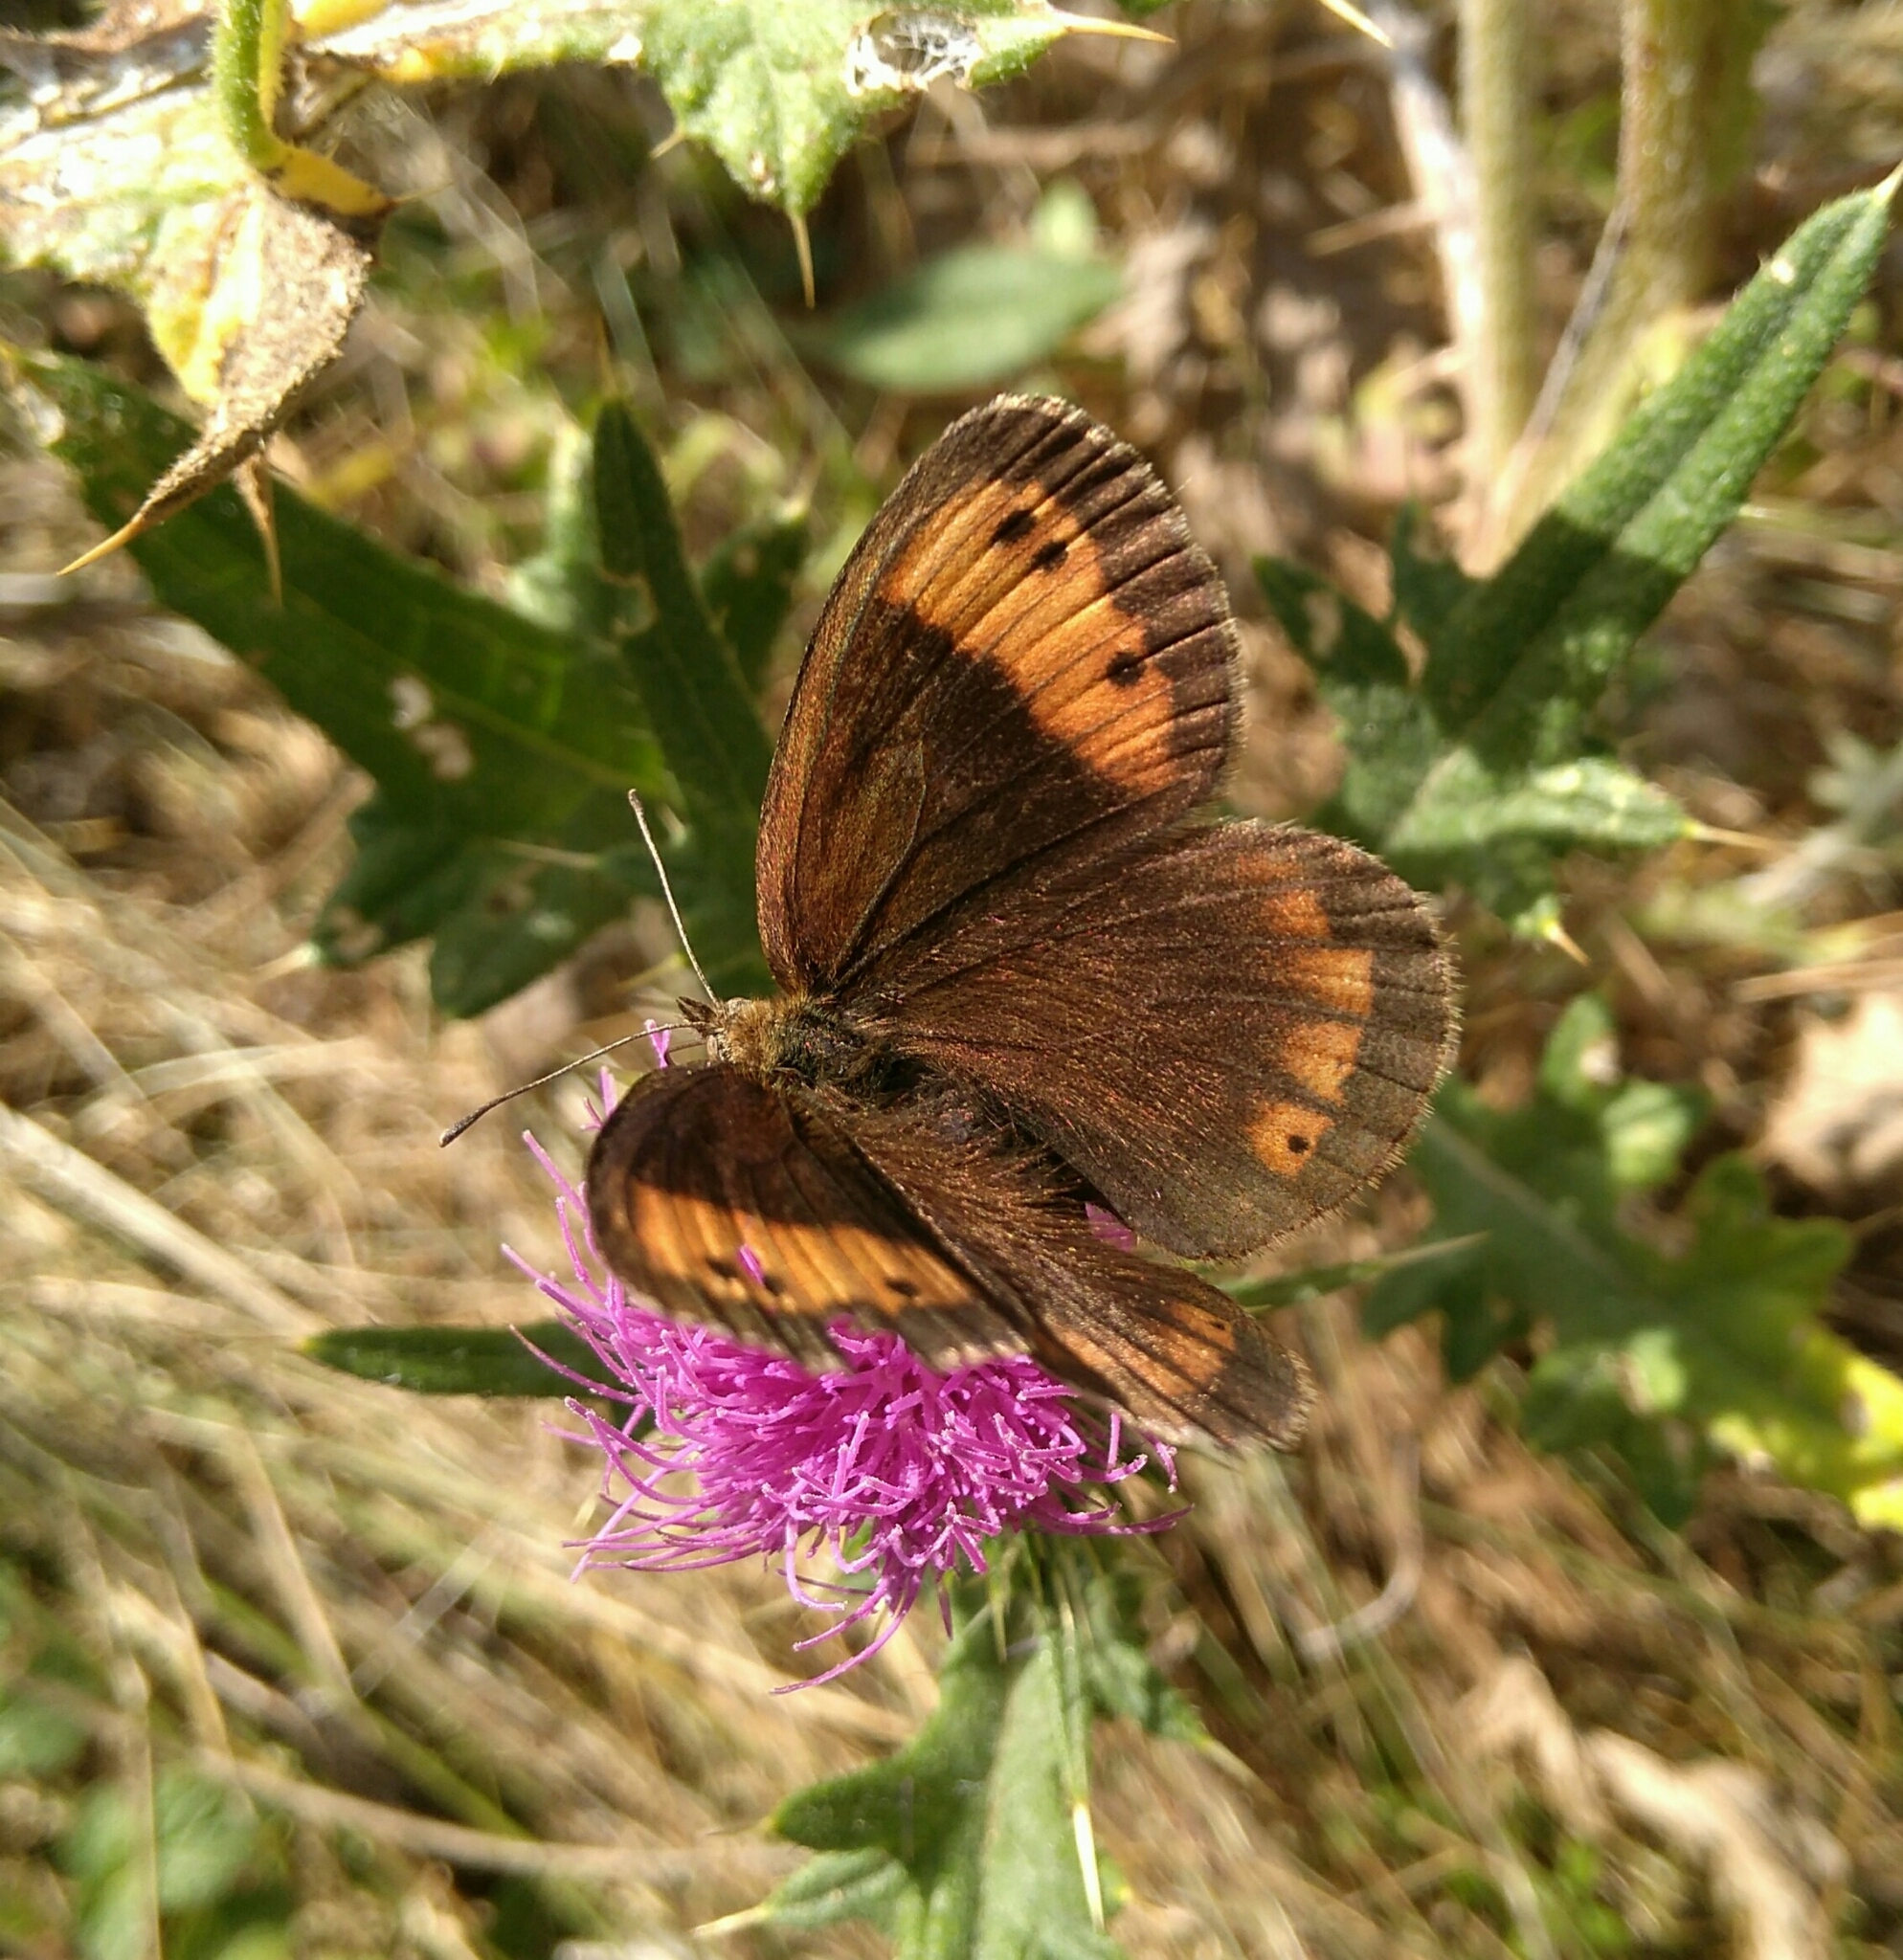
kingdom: Animalia
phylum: Arthropoda
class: Insecta
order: Lepidoptera
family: Nymphalidae
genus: Erebia
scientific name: Erebia neoridas
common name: Autumn ringlet
